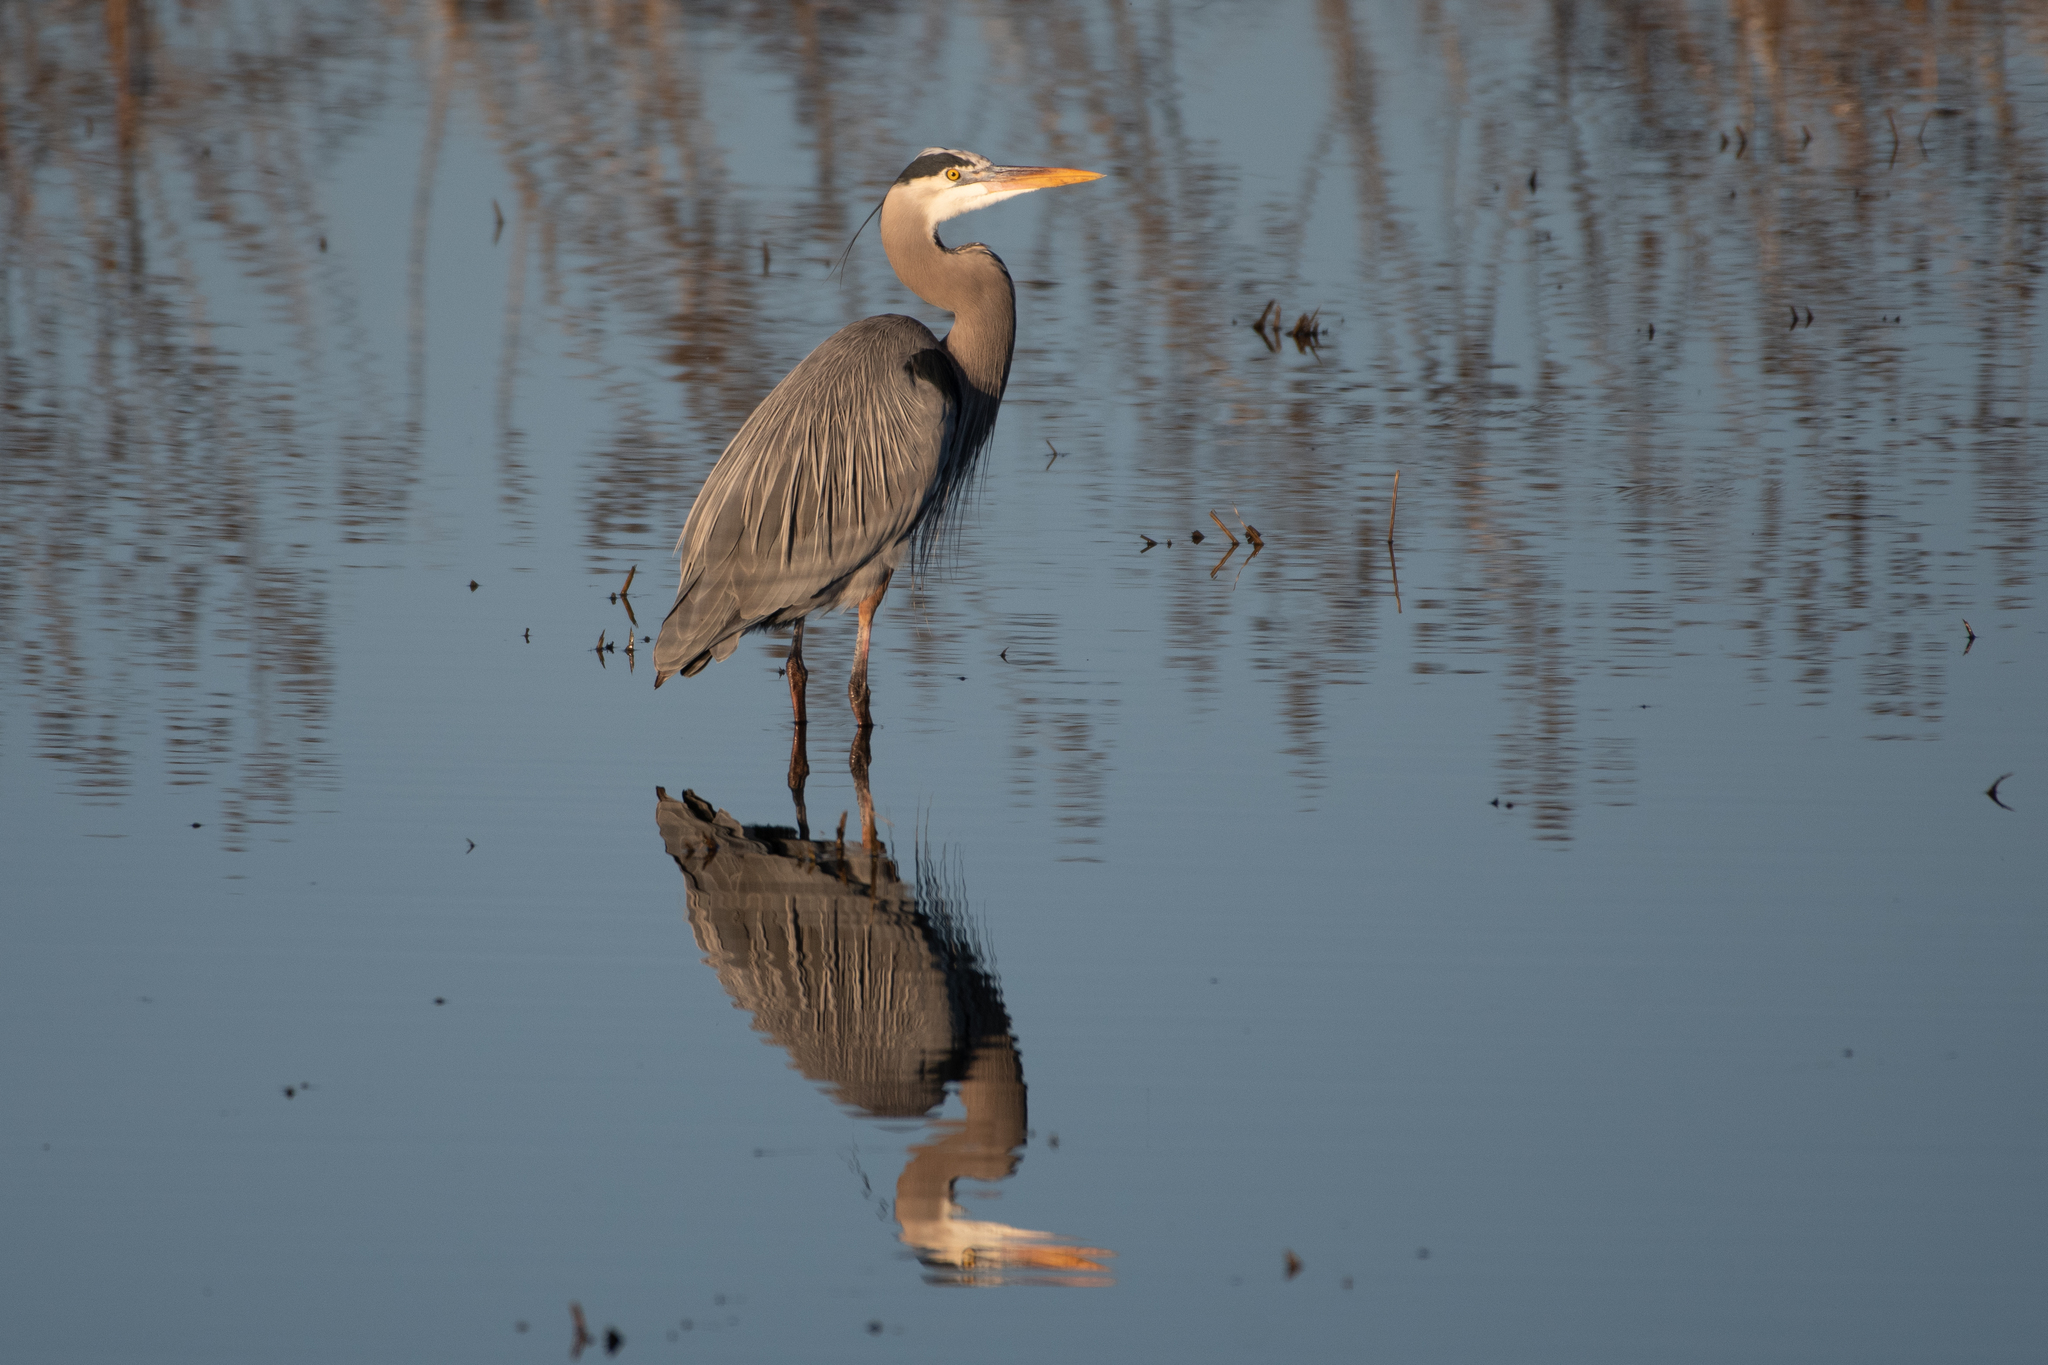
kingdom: Animalia
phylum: Chordata
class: Aves
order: Pelecaniformes
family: Ardeidae
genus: Ardea
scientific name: Ardea herodias
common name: Great blue heron
